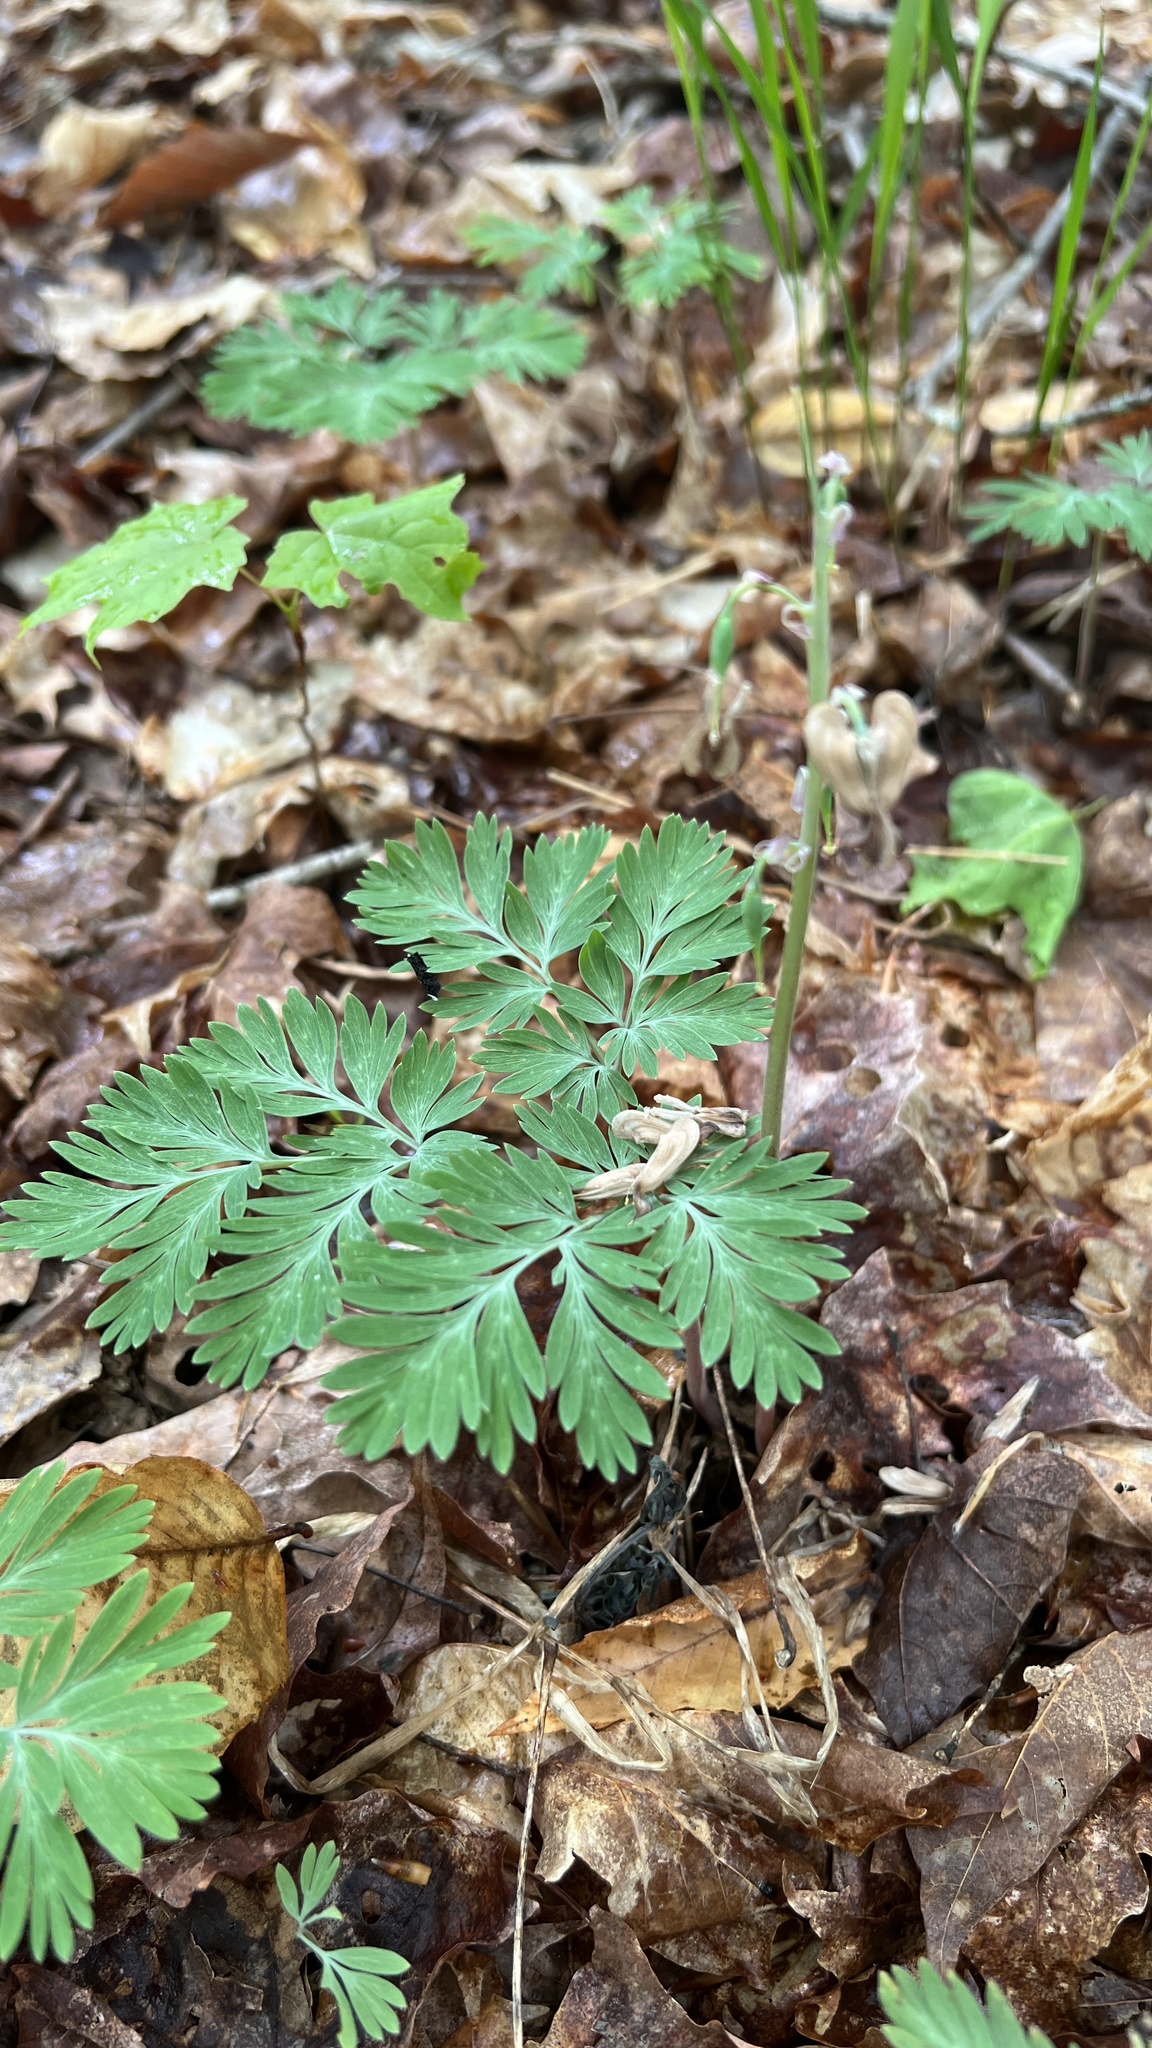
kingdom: Plantae
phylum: Tracheophyta
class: Magnoliopsida
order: Ranunculales
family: Papaveraceae
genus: Dicentra
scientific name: Dicentra canadensis
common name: Squirrel-corn
